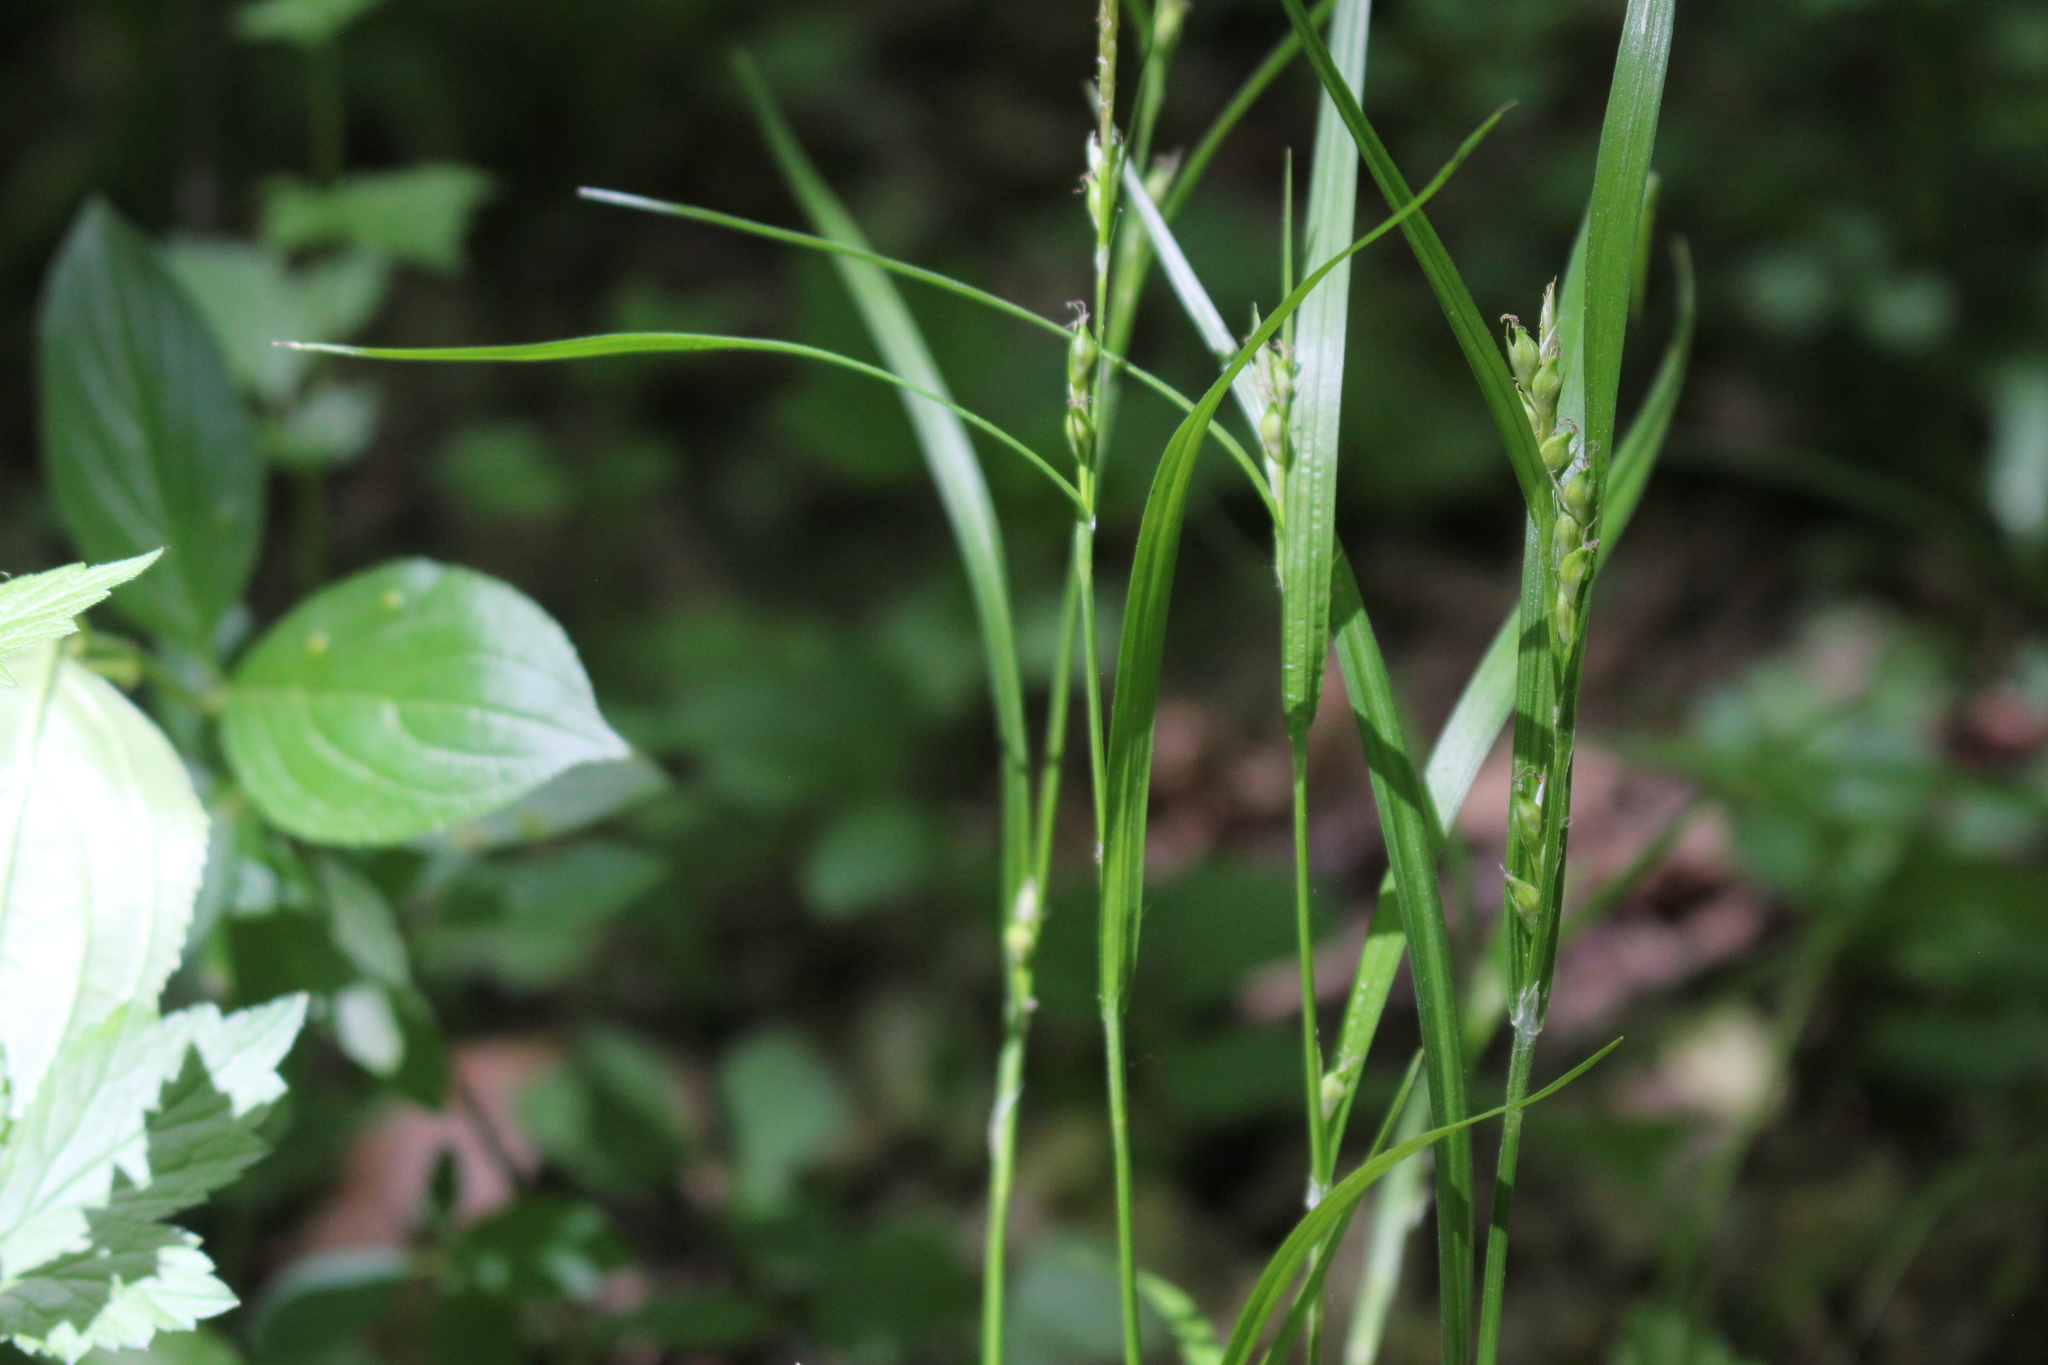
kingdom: Plantae
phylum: Tracheophyta
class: Liliopsida
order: Poales
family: Cyperaceae
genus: Carex
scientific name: Carex hitchcockiana
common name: Hairy grey sedge
